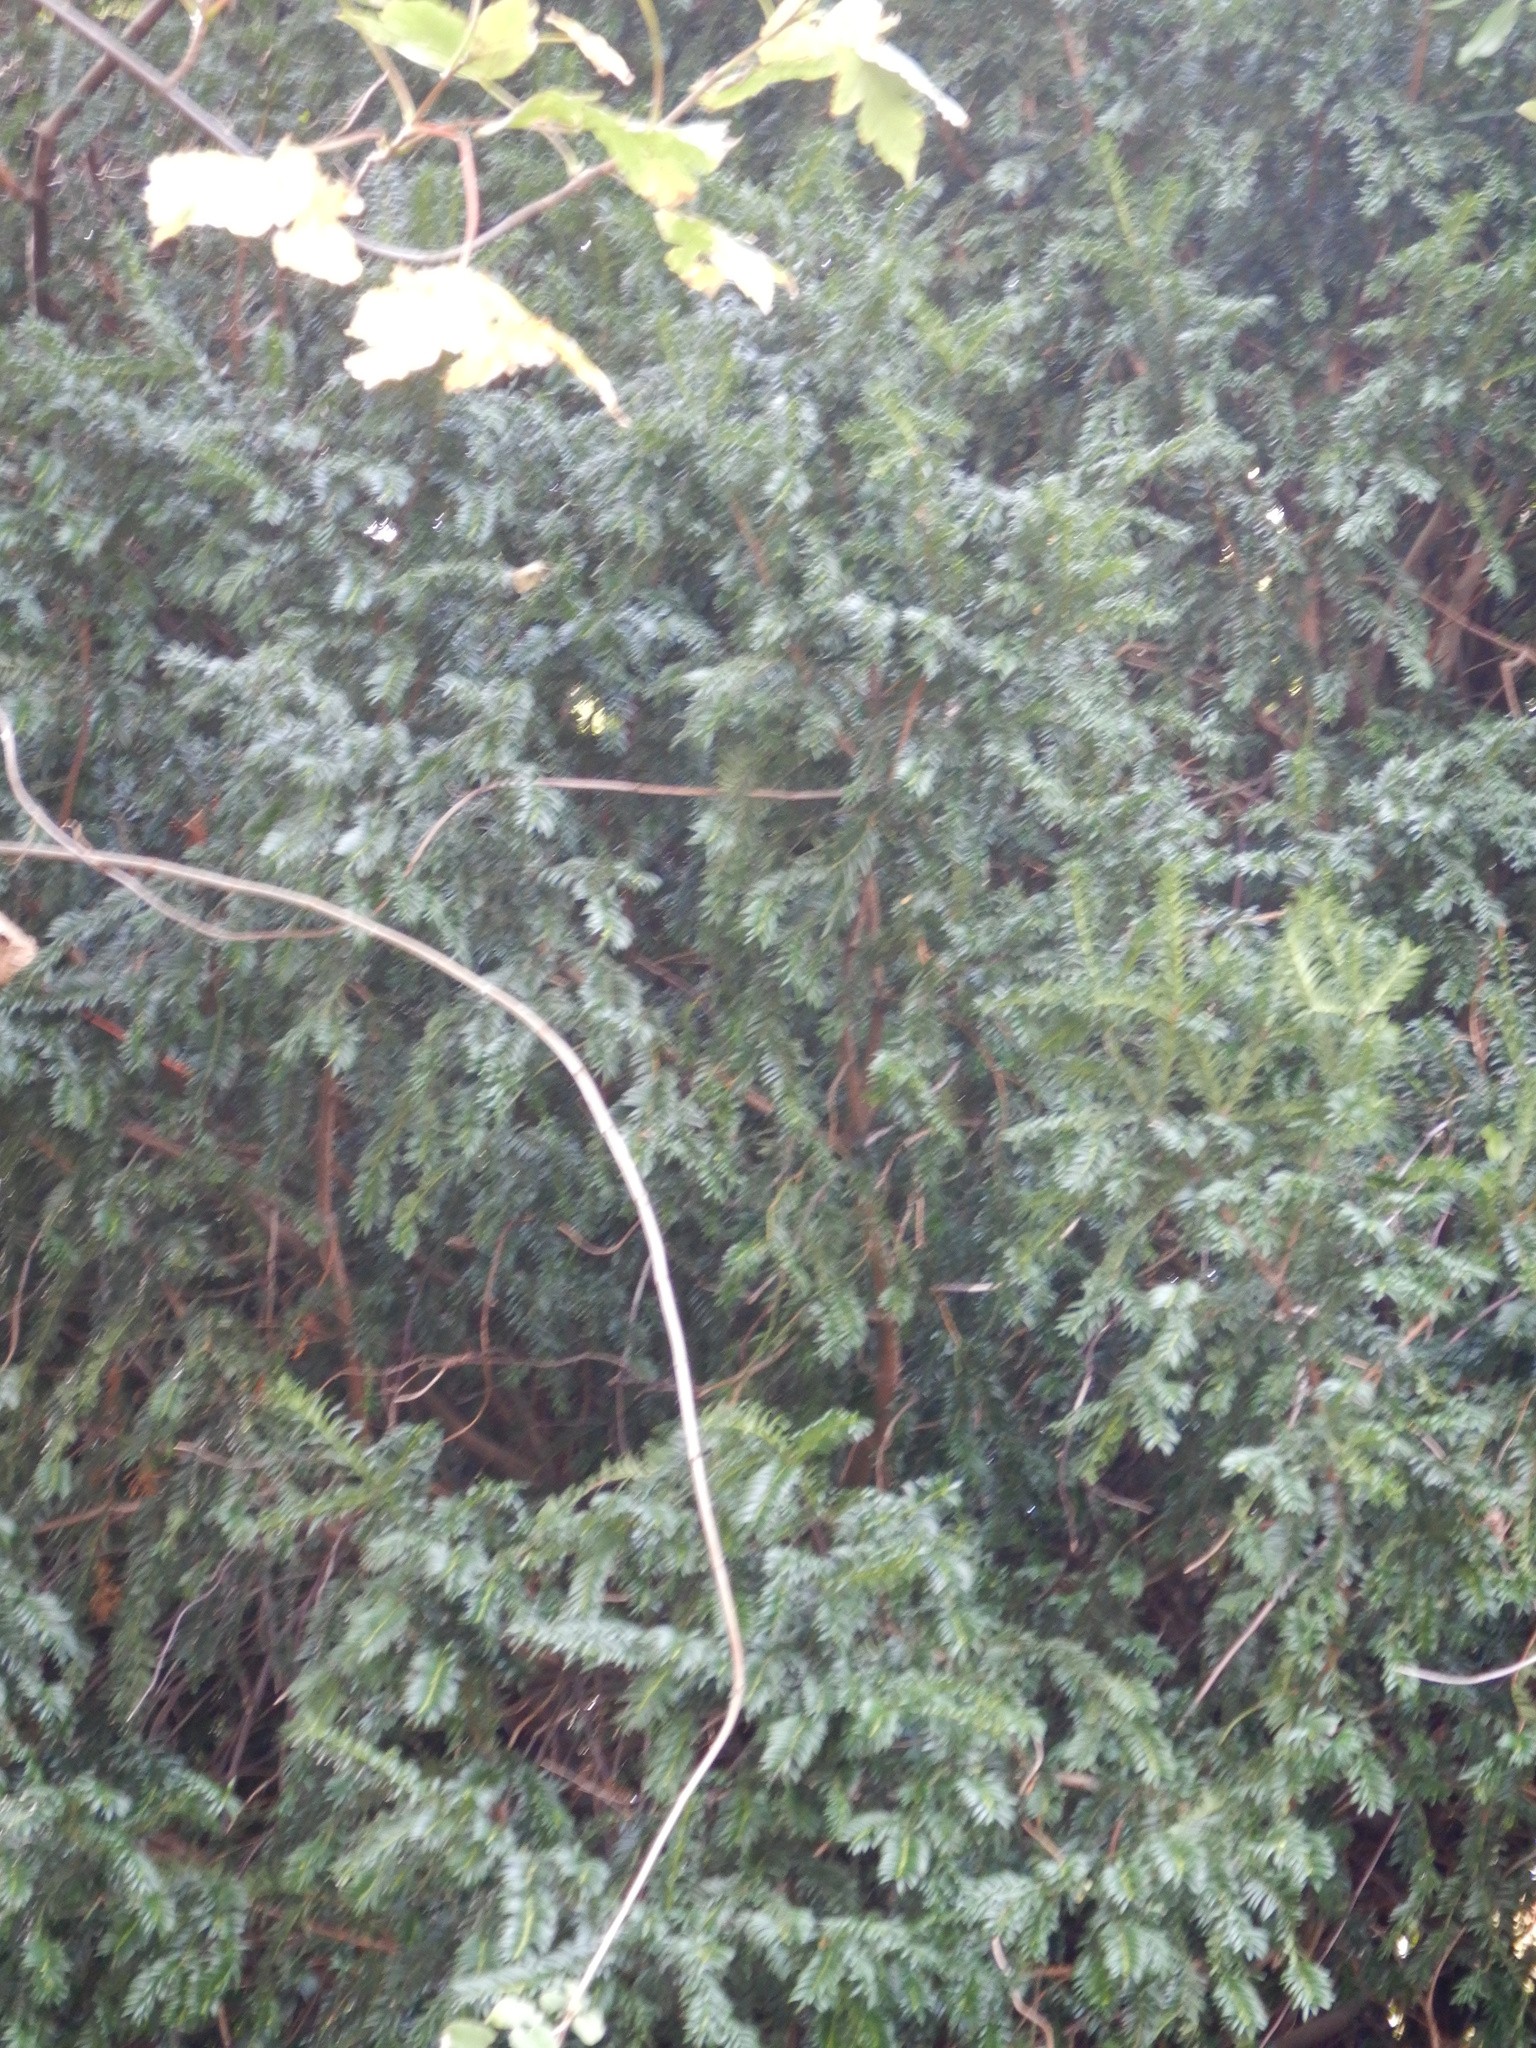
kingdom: Plantae
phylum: Tracheophyta
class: Pinopsida
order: Pinales
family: Taxaceae
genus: Taxus
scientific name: Taxus baccata
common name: Yew
